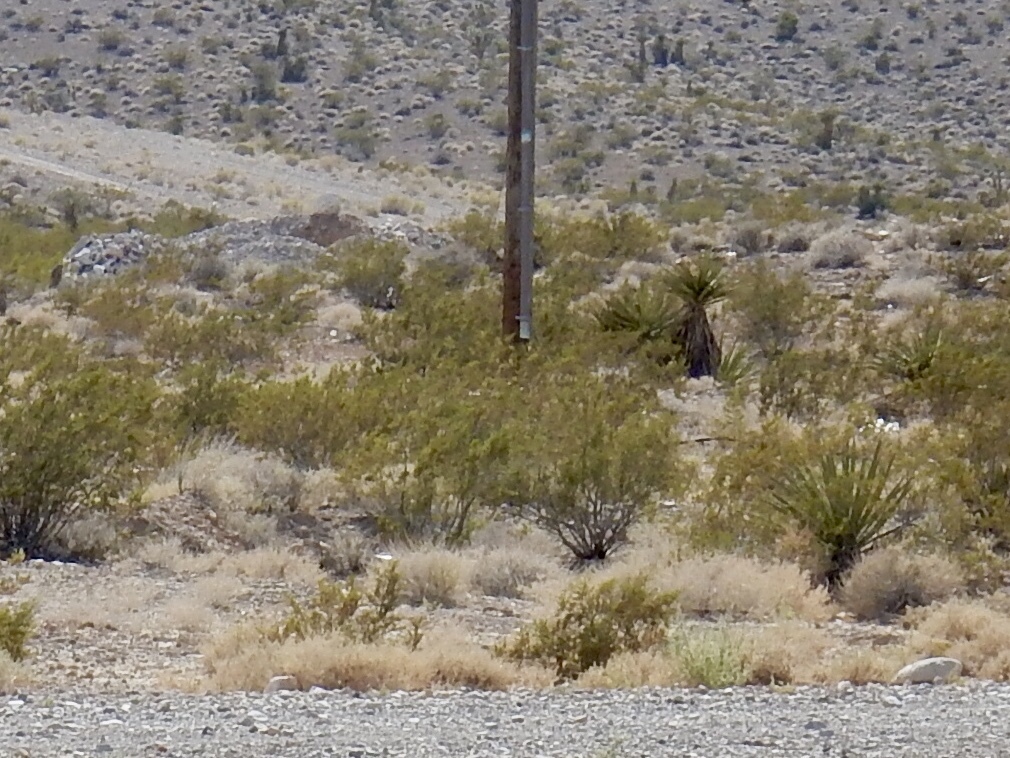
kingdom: Plantae
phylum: Tracheophyta
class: Magnoliopsida
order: Zygophyllales
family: Zygophyllaceae
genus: Larrea
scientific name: Larrea tridentata
